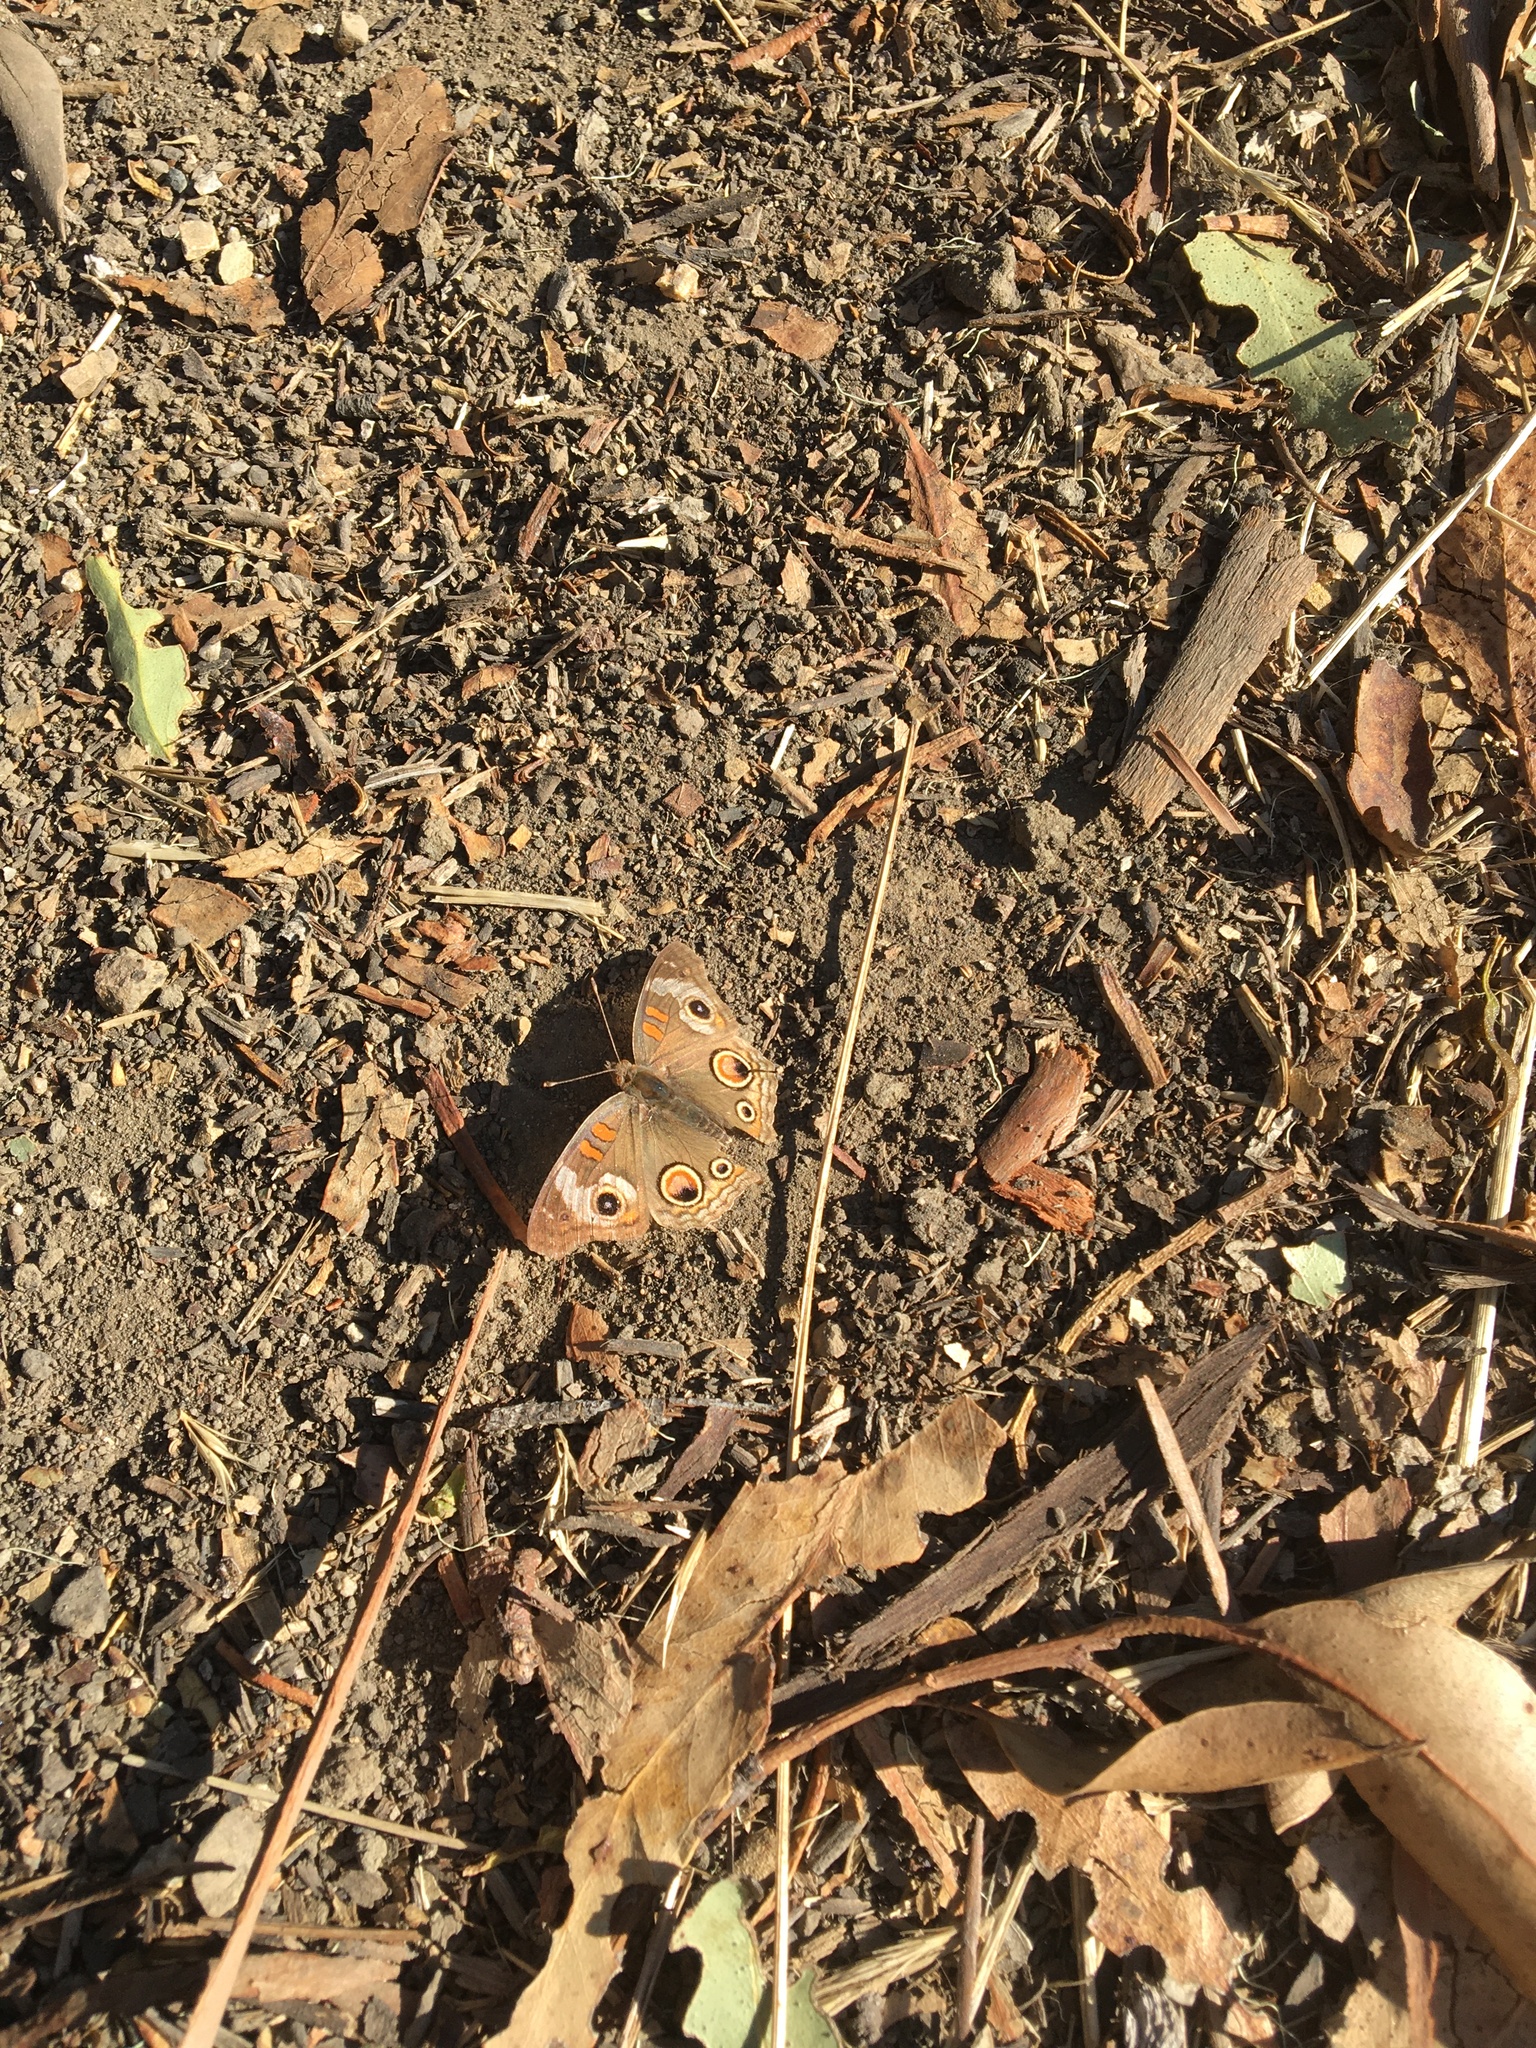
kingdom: Animalia
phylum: Arthropoda
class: Insecta
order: Lepidoptera
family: Nymphalidae
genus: Junonia
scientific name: Junonia grisea
